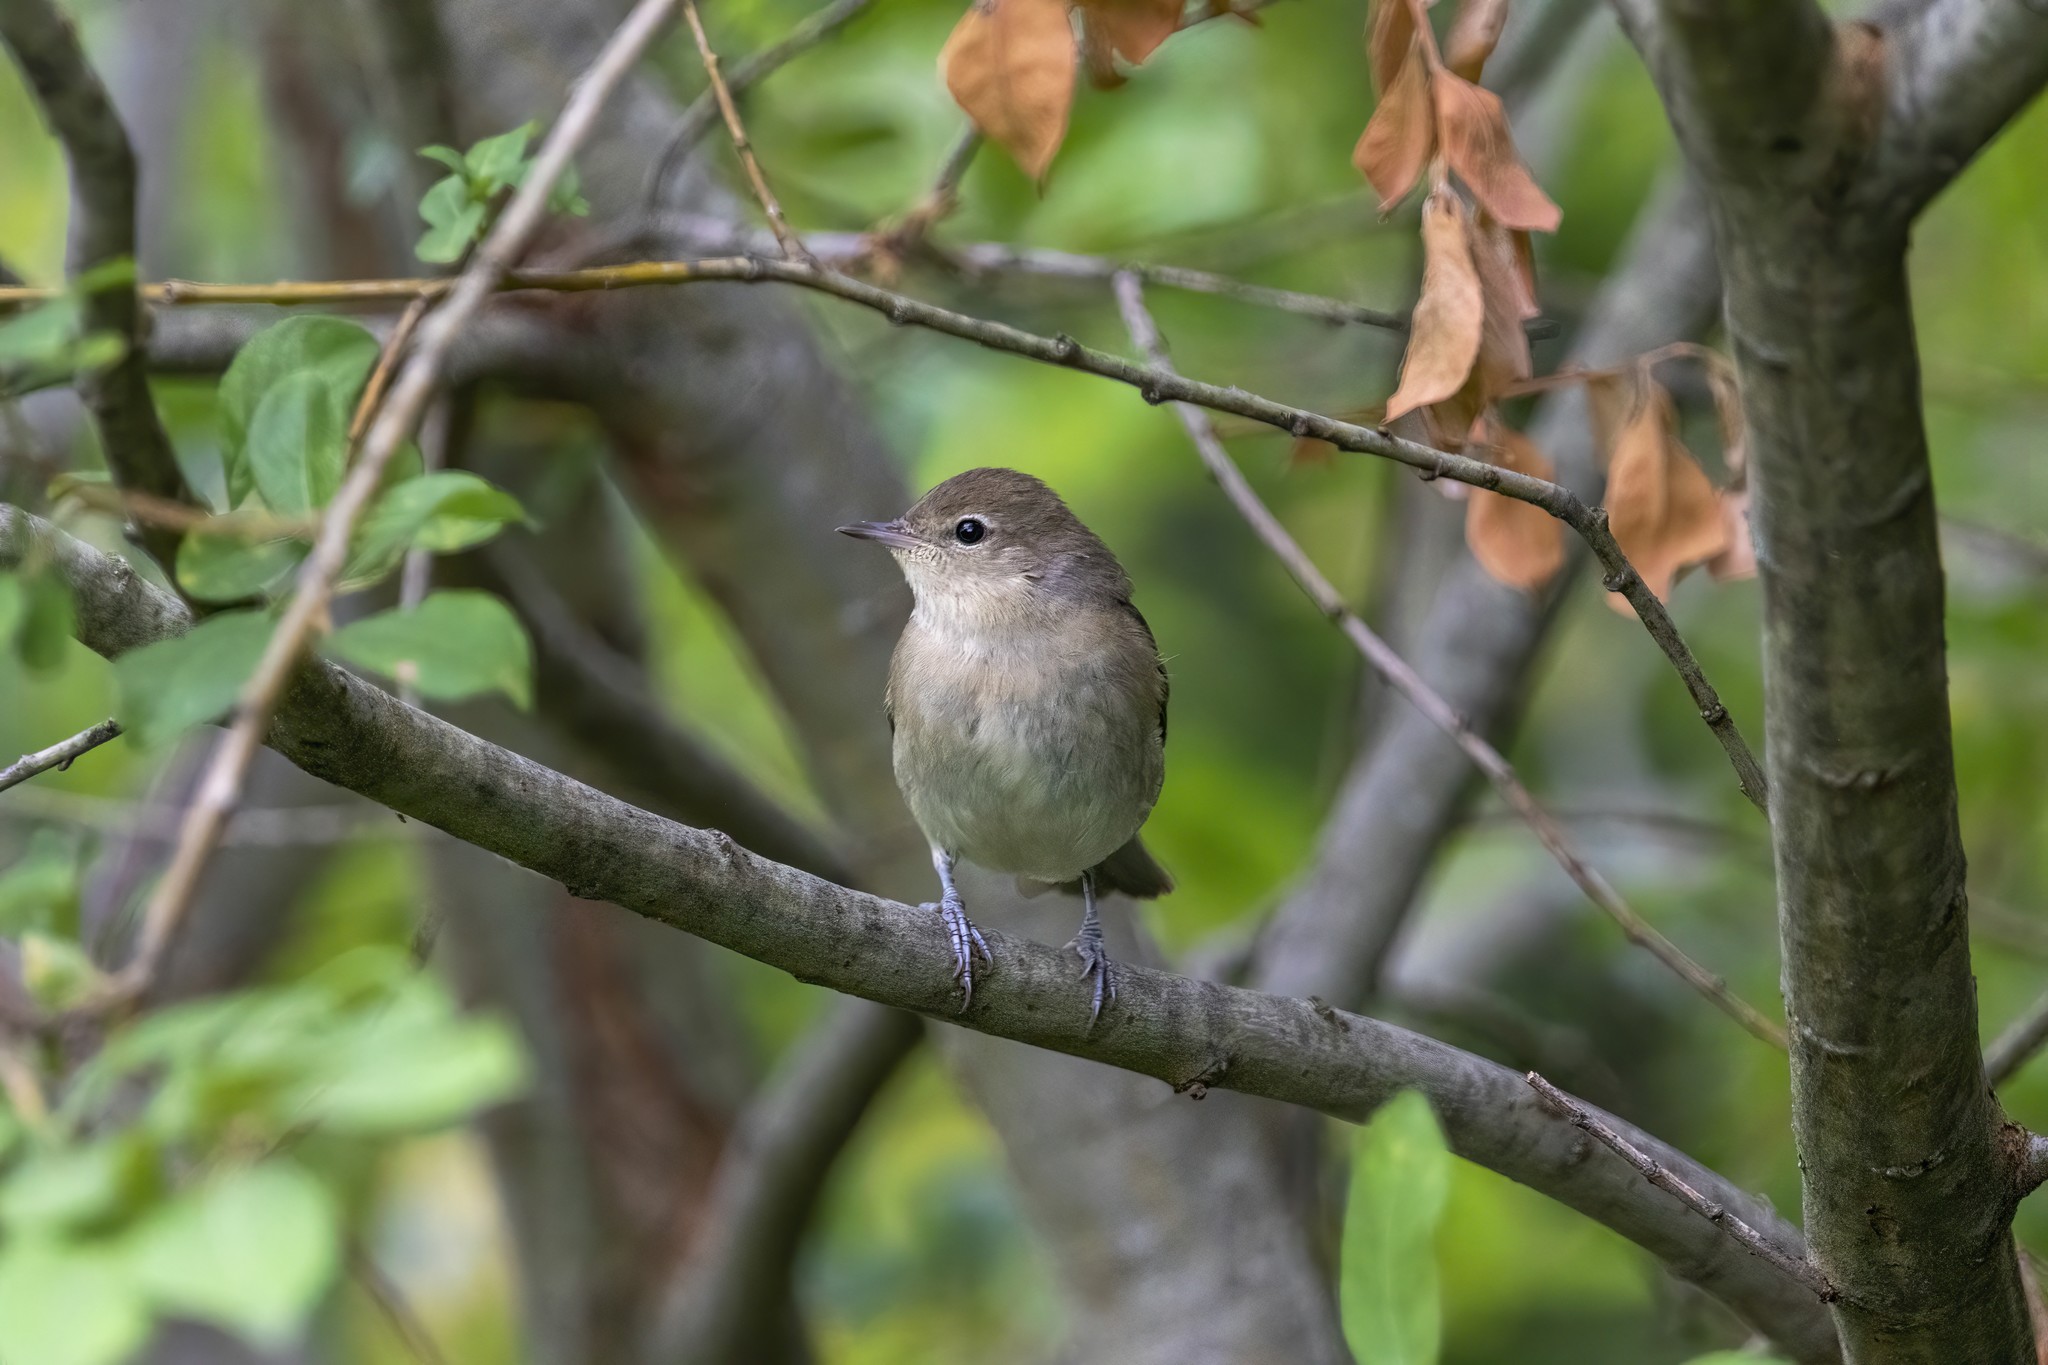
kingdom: Animalia
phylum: Chordata
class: Aves
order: Passeriformes
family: Sylviidae
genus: Sylvia
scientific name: Sylvia borin
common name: Garden warbler
